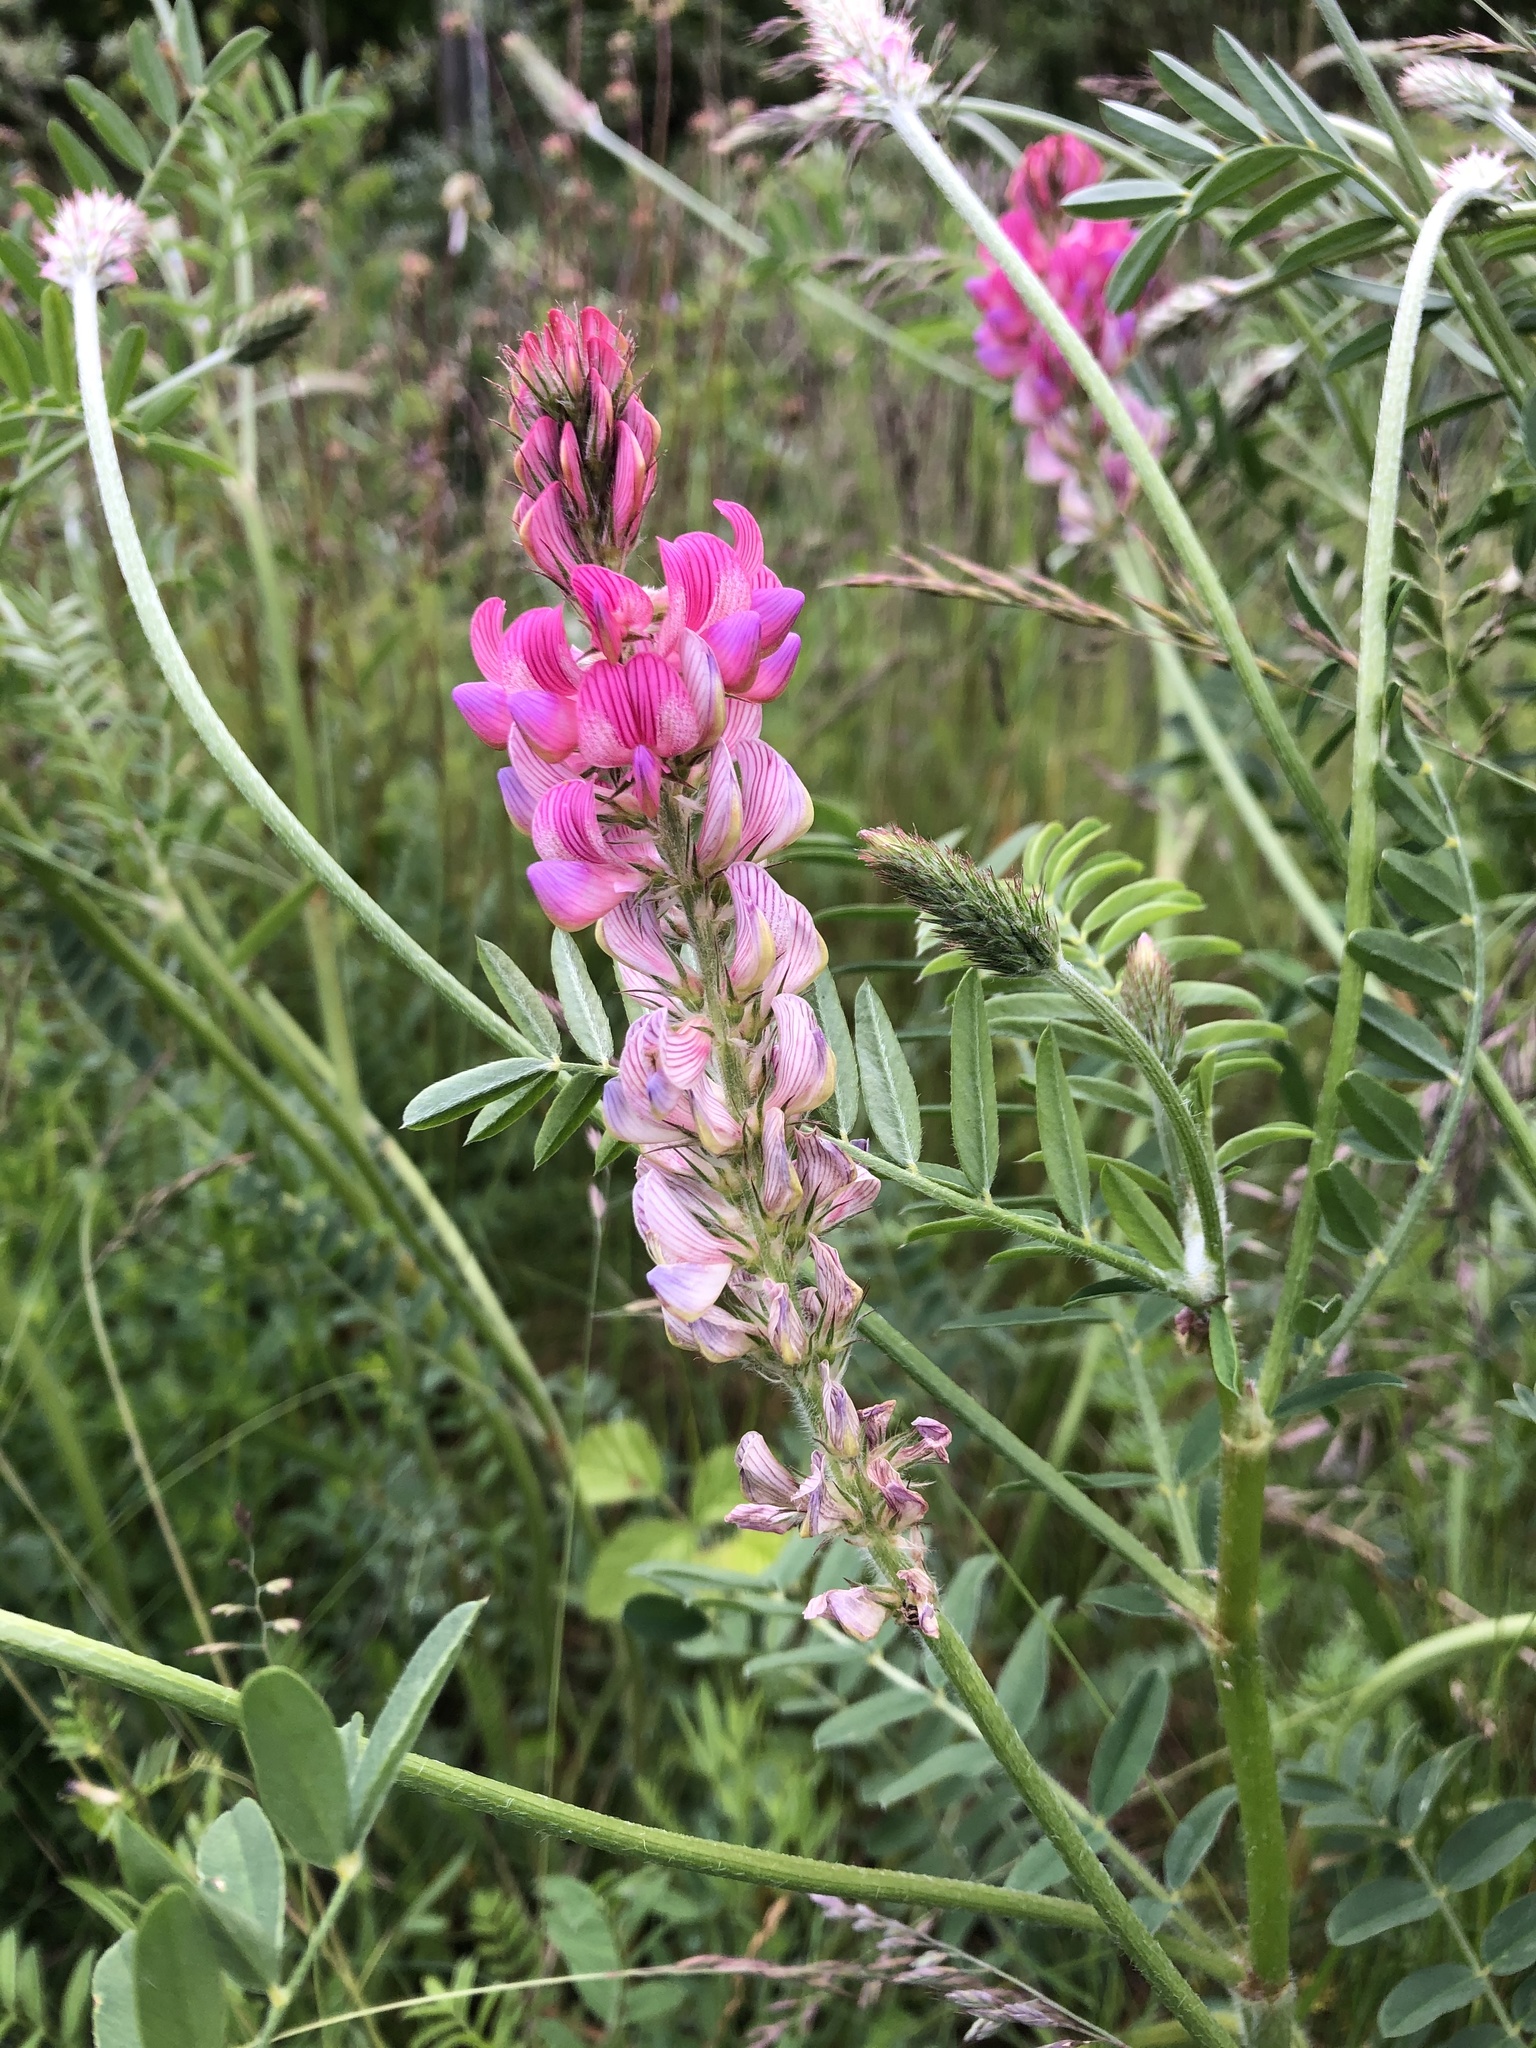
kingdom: Plantae
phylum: Tracheophyta
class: Magnoliopsida
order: Fabales
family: Fabaceae
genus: Onobrychis
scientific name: Onobrychis viciifolia
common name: Sainfoin
